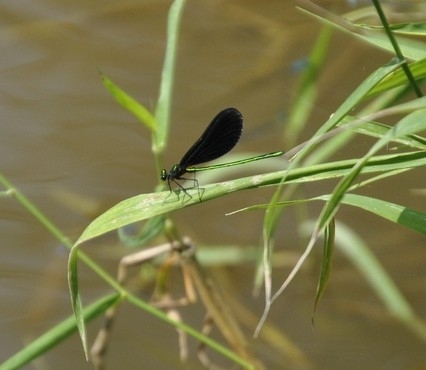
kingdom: Animalia
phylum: Arthropoda
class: Insecta
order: Odonata
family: Calopterygidae
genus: Calopteryx
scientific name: Calopteryx maculata
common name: Ebony jewelwing
